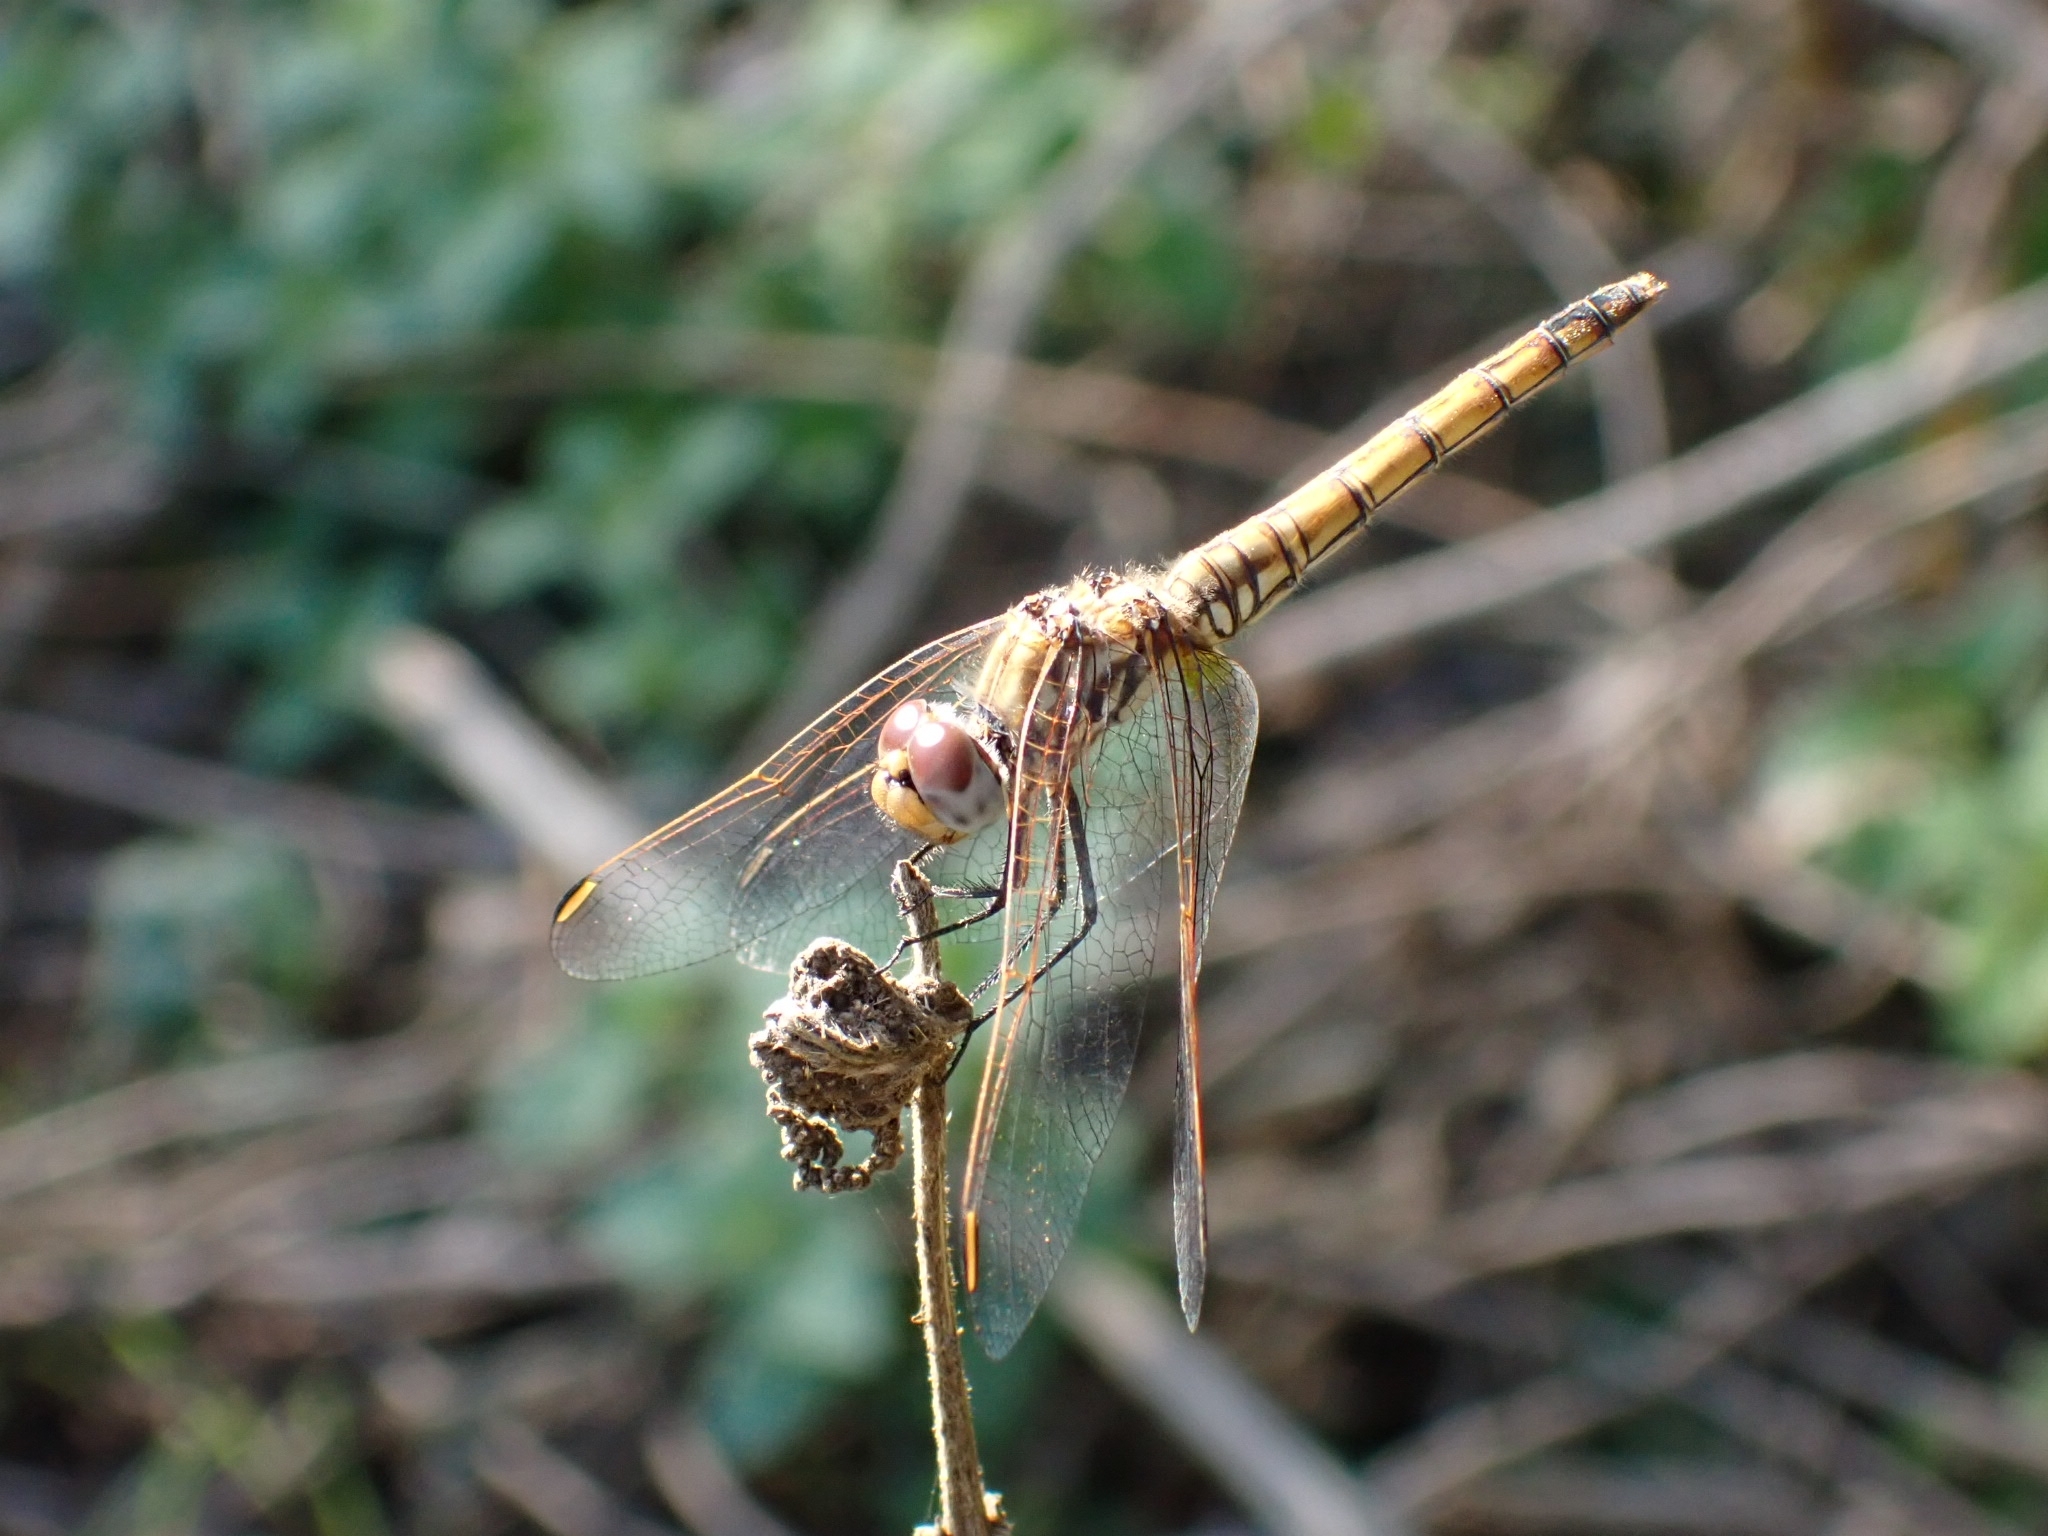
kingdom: Animalia
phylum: Arthropoda
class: Insecta
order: Odonata
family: Libellulidae
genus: Trithemis
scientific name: Trithemis annulata
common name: Violet dropwing
